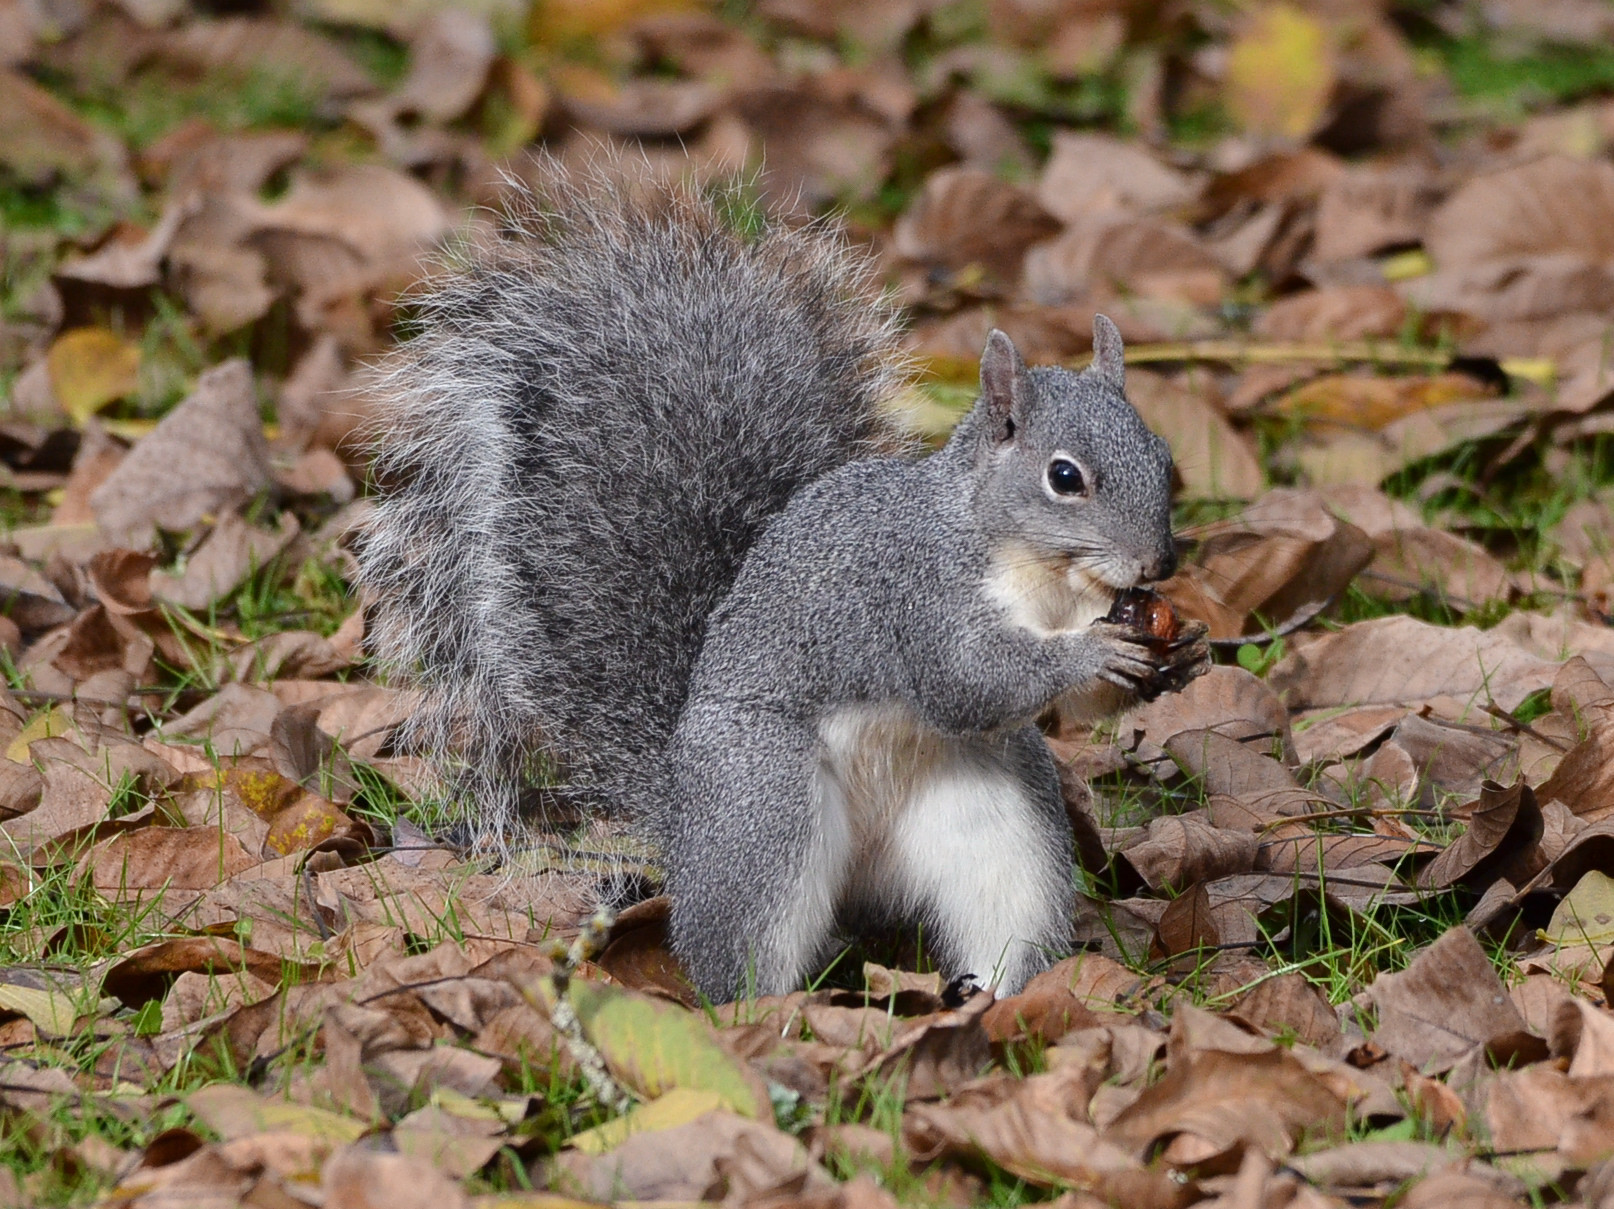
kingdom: Animalia
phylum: Chordata
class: Mammalia
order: Rodentia
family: Sciuridae
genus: Sciurus
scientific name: Sciurus griseus
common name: Western gray squirrel
